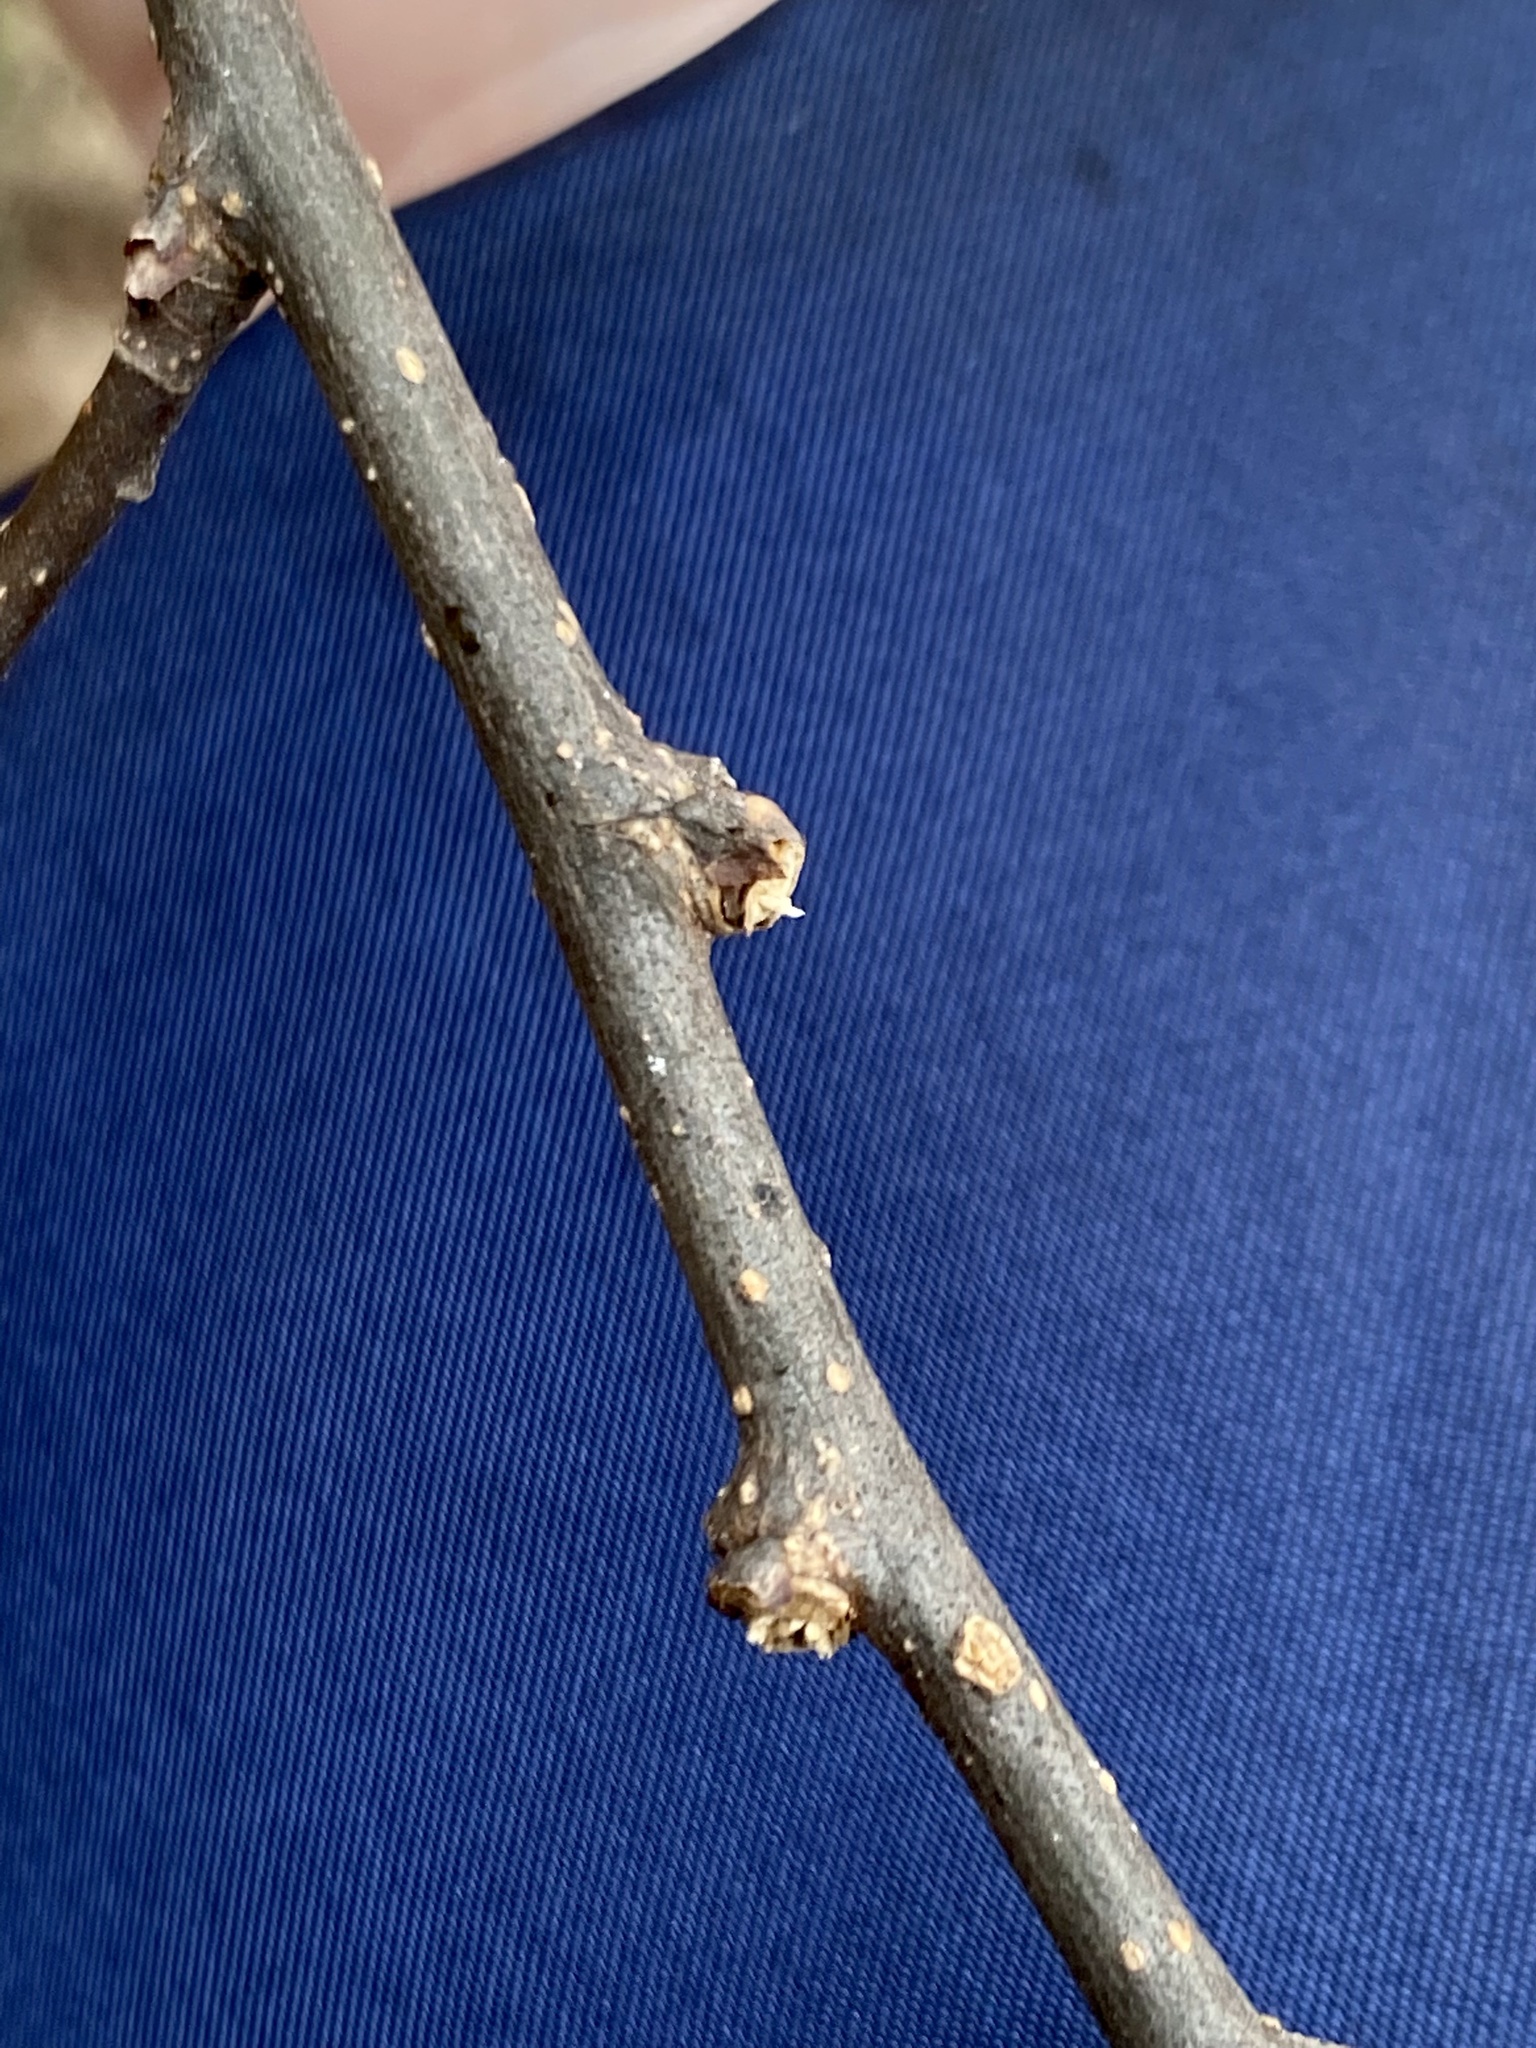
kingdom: Plantae
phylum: Tracheophyta
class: Magnoliopsida
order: Rosales
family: Cannabaceae
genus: Celtis
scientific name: Celtis occidentalis
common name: Common hackberry
